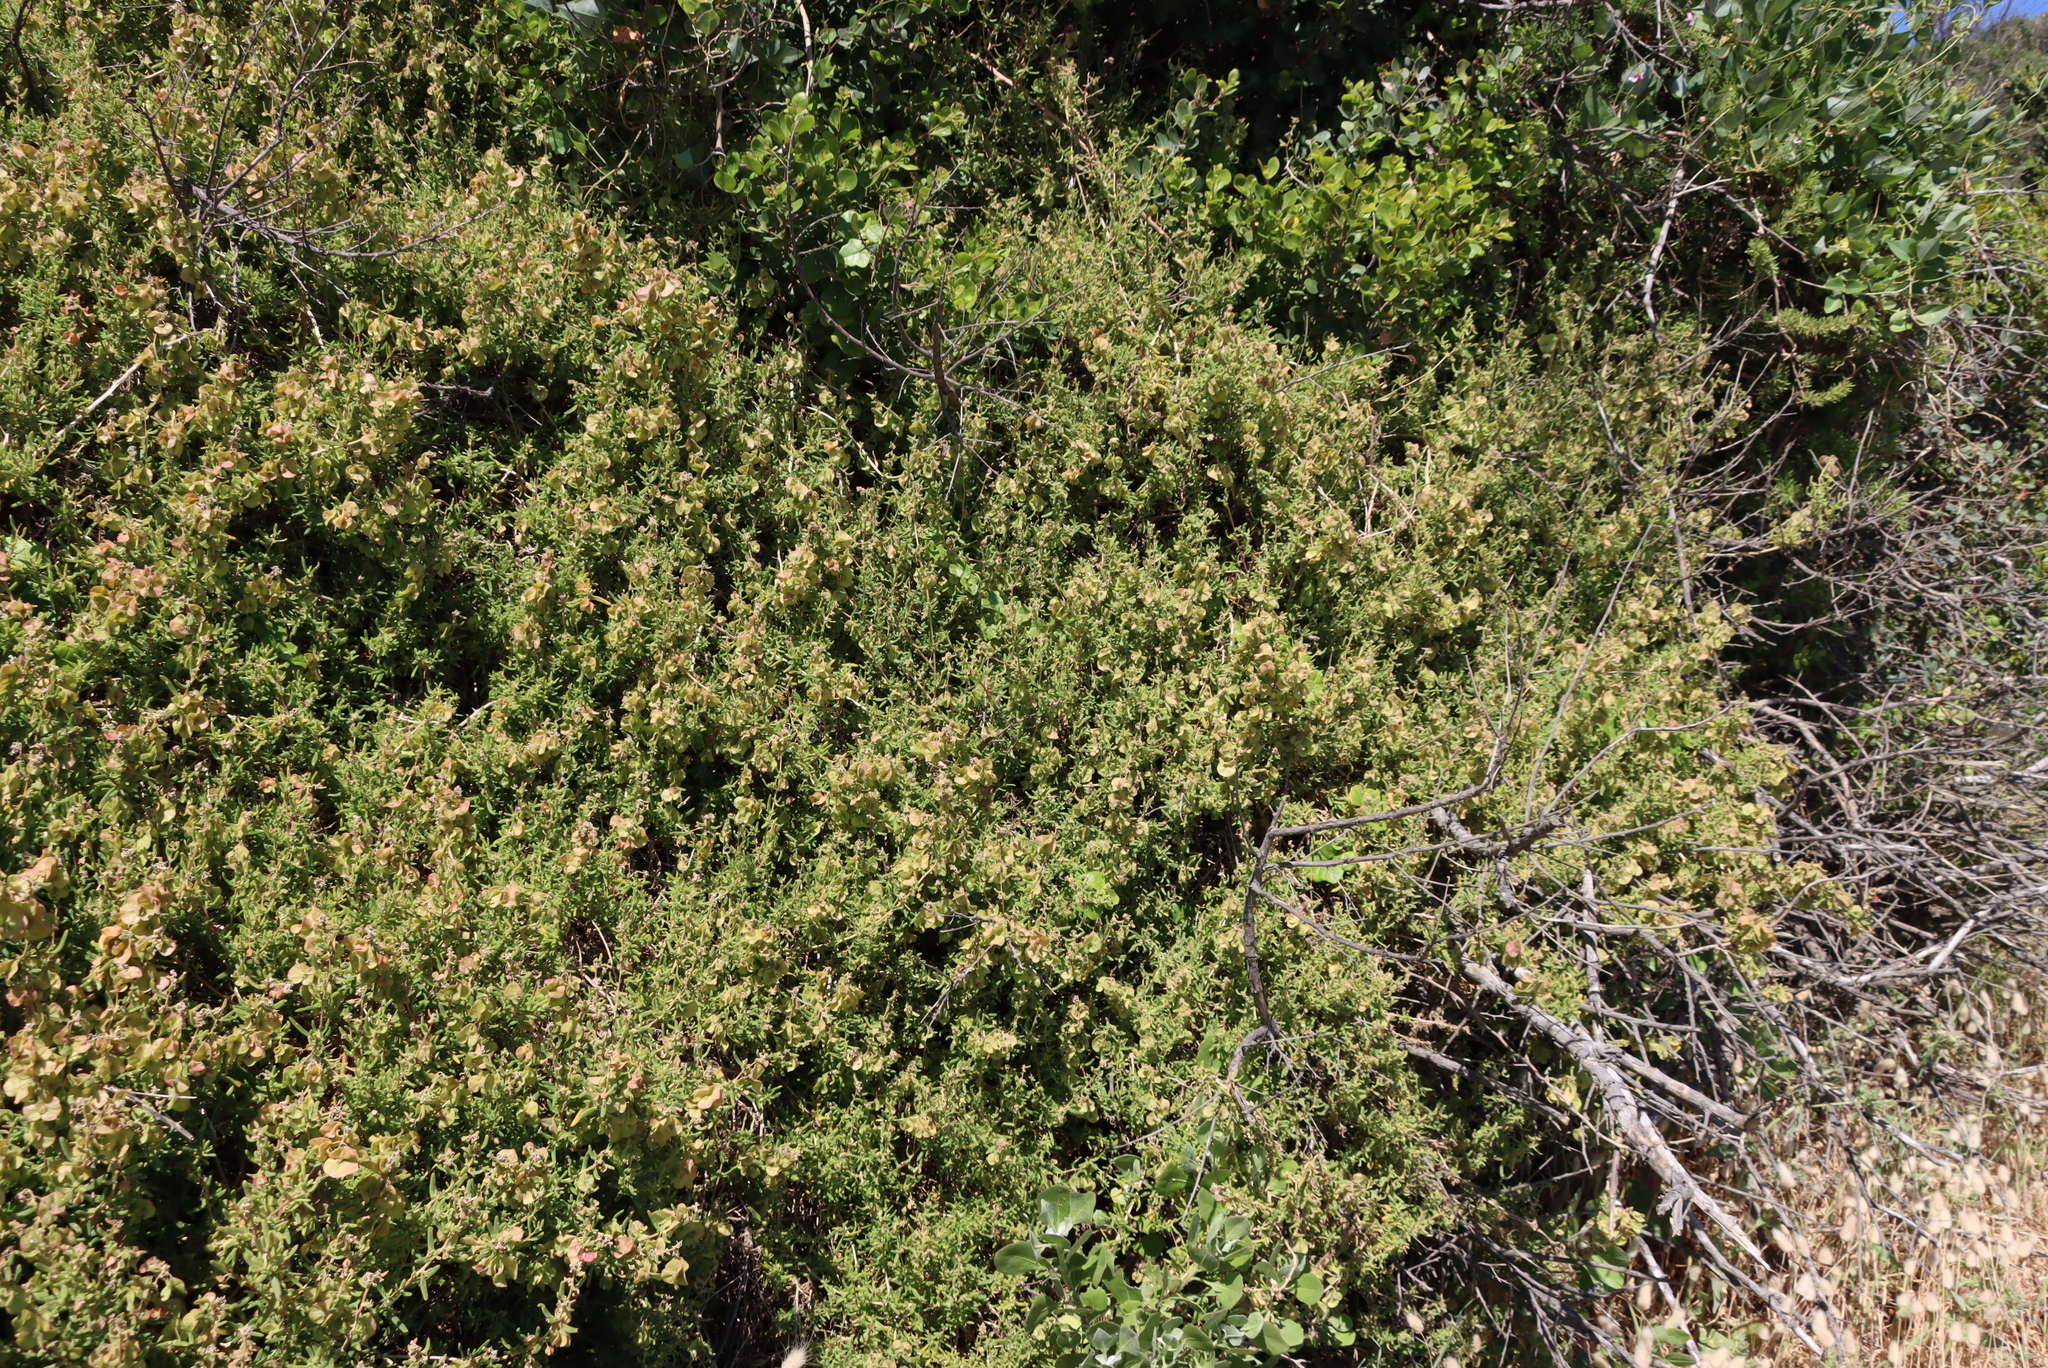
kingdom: Plantae
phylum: Tracheophyta
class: Magnoliopsida
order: Caryophyllales
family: Aizoaceae
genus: Tetragonia
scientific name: Tetragonia fruticosa
